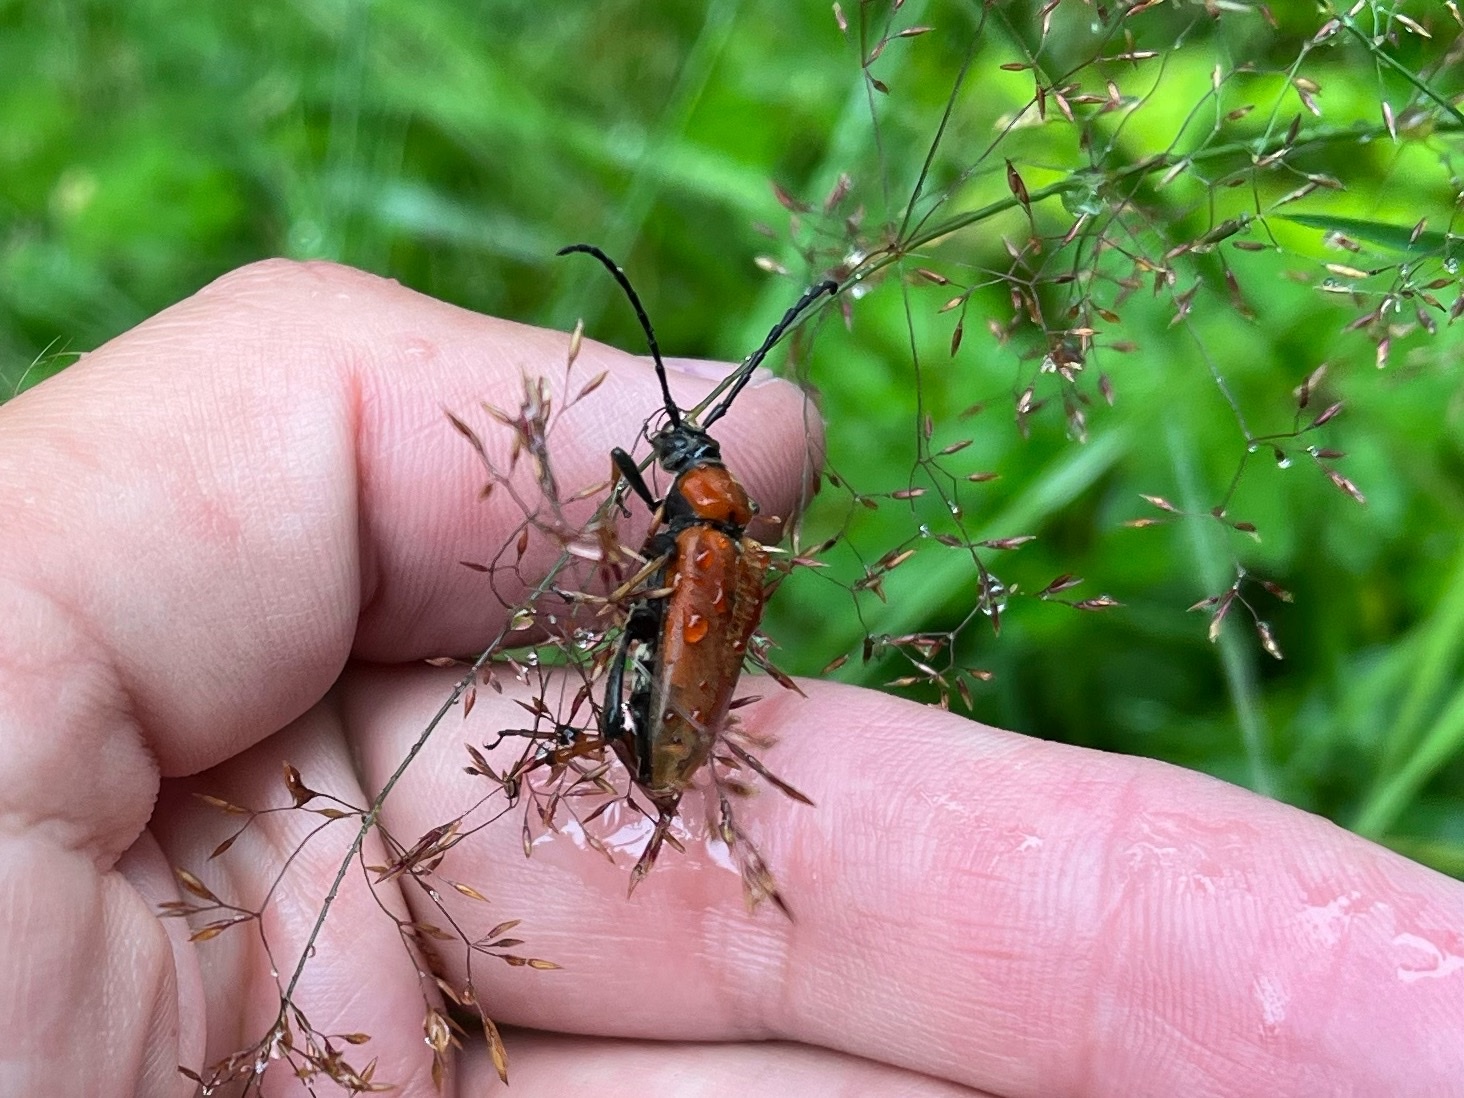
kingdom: Animalia
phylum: Arthropoda
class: Insecta
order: Coleoptera
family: Cerambycidae
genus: Stictoleptura
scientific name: Stictoleptura rubra
